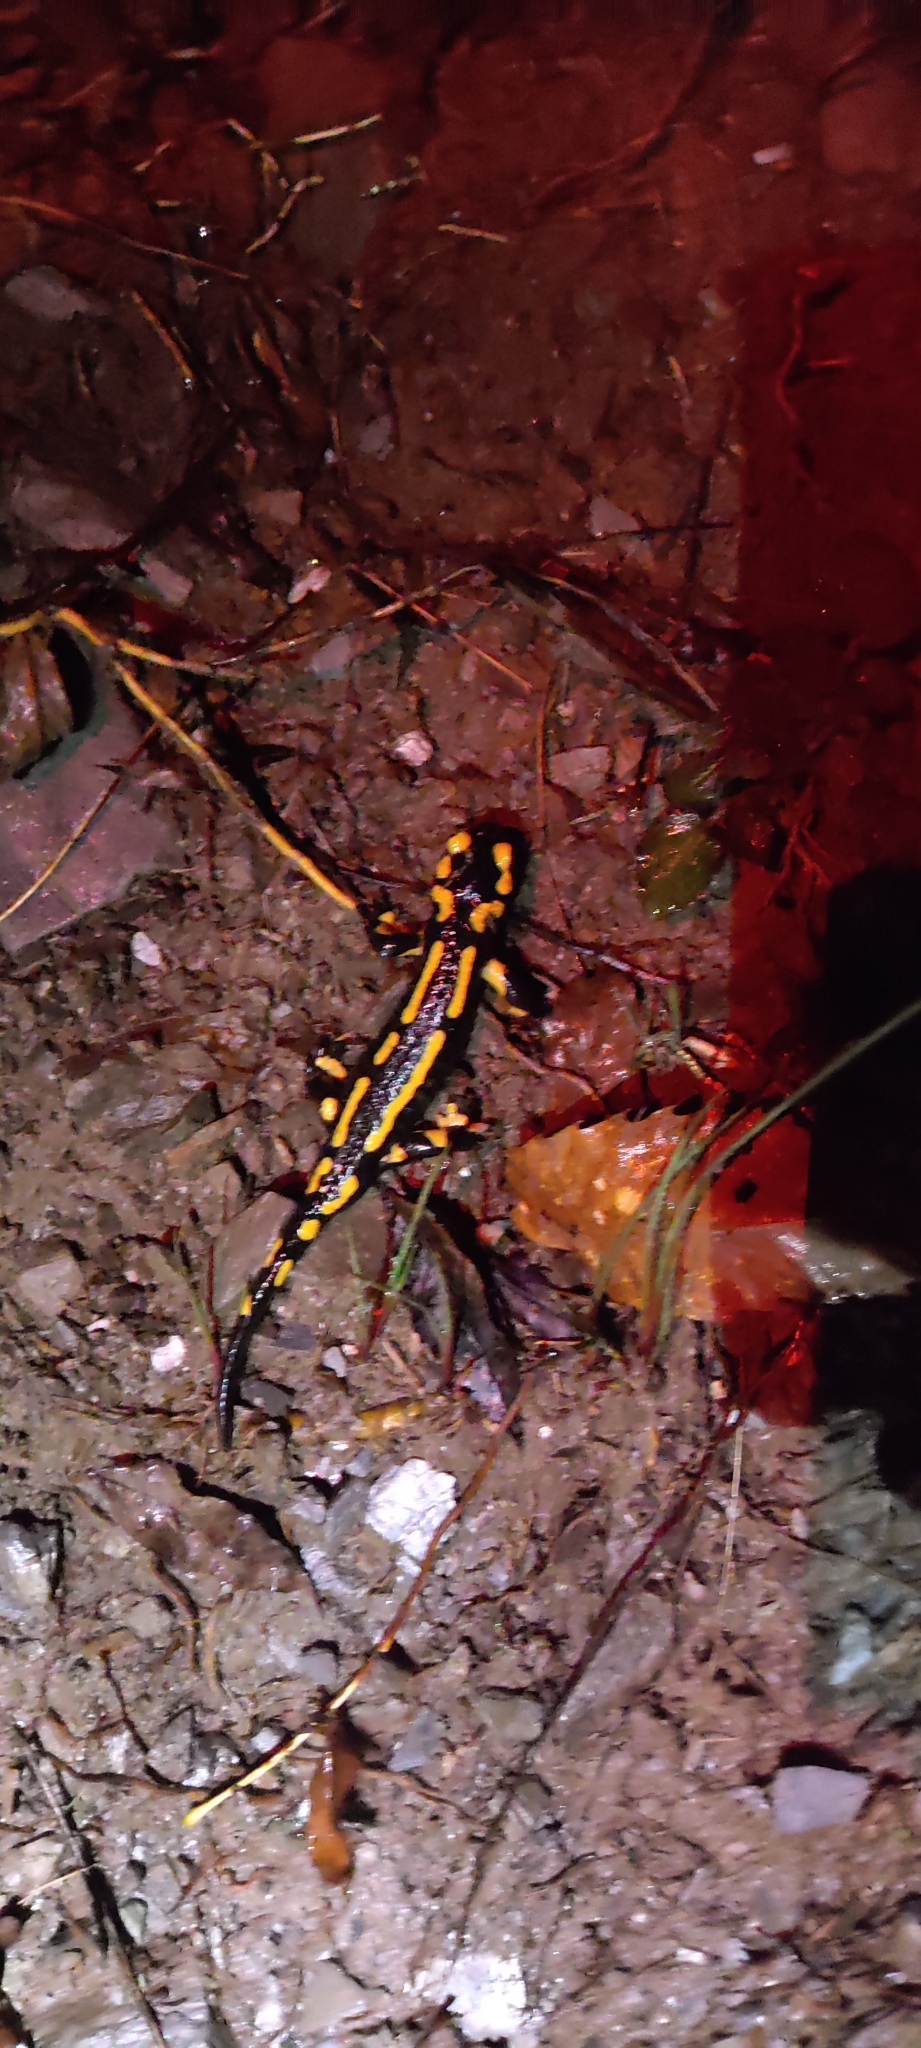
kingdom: Animalia
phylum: Chordata
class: Amphibia
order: Caudata
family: Salamandridae
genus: Salamandra
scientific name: Salamandra salamandra
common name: Fire salamander
